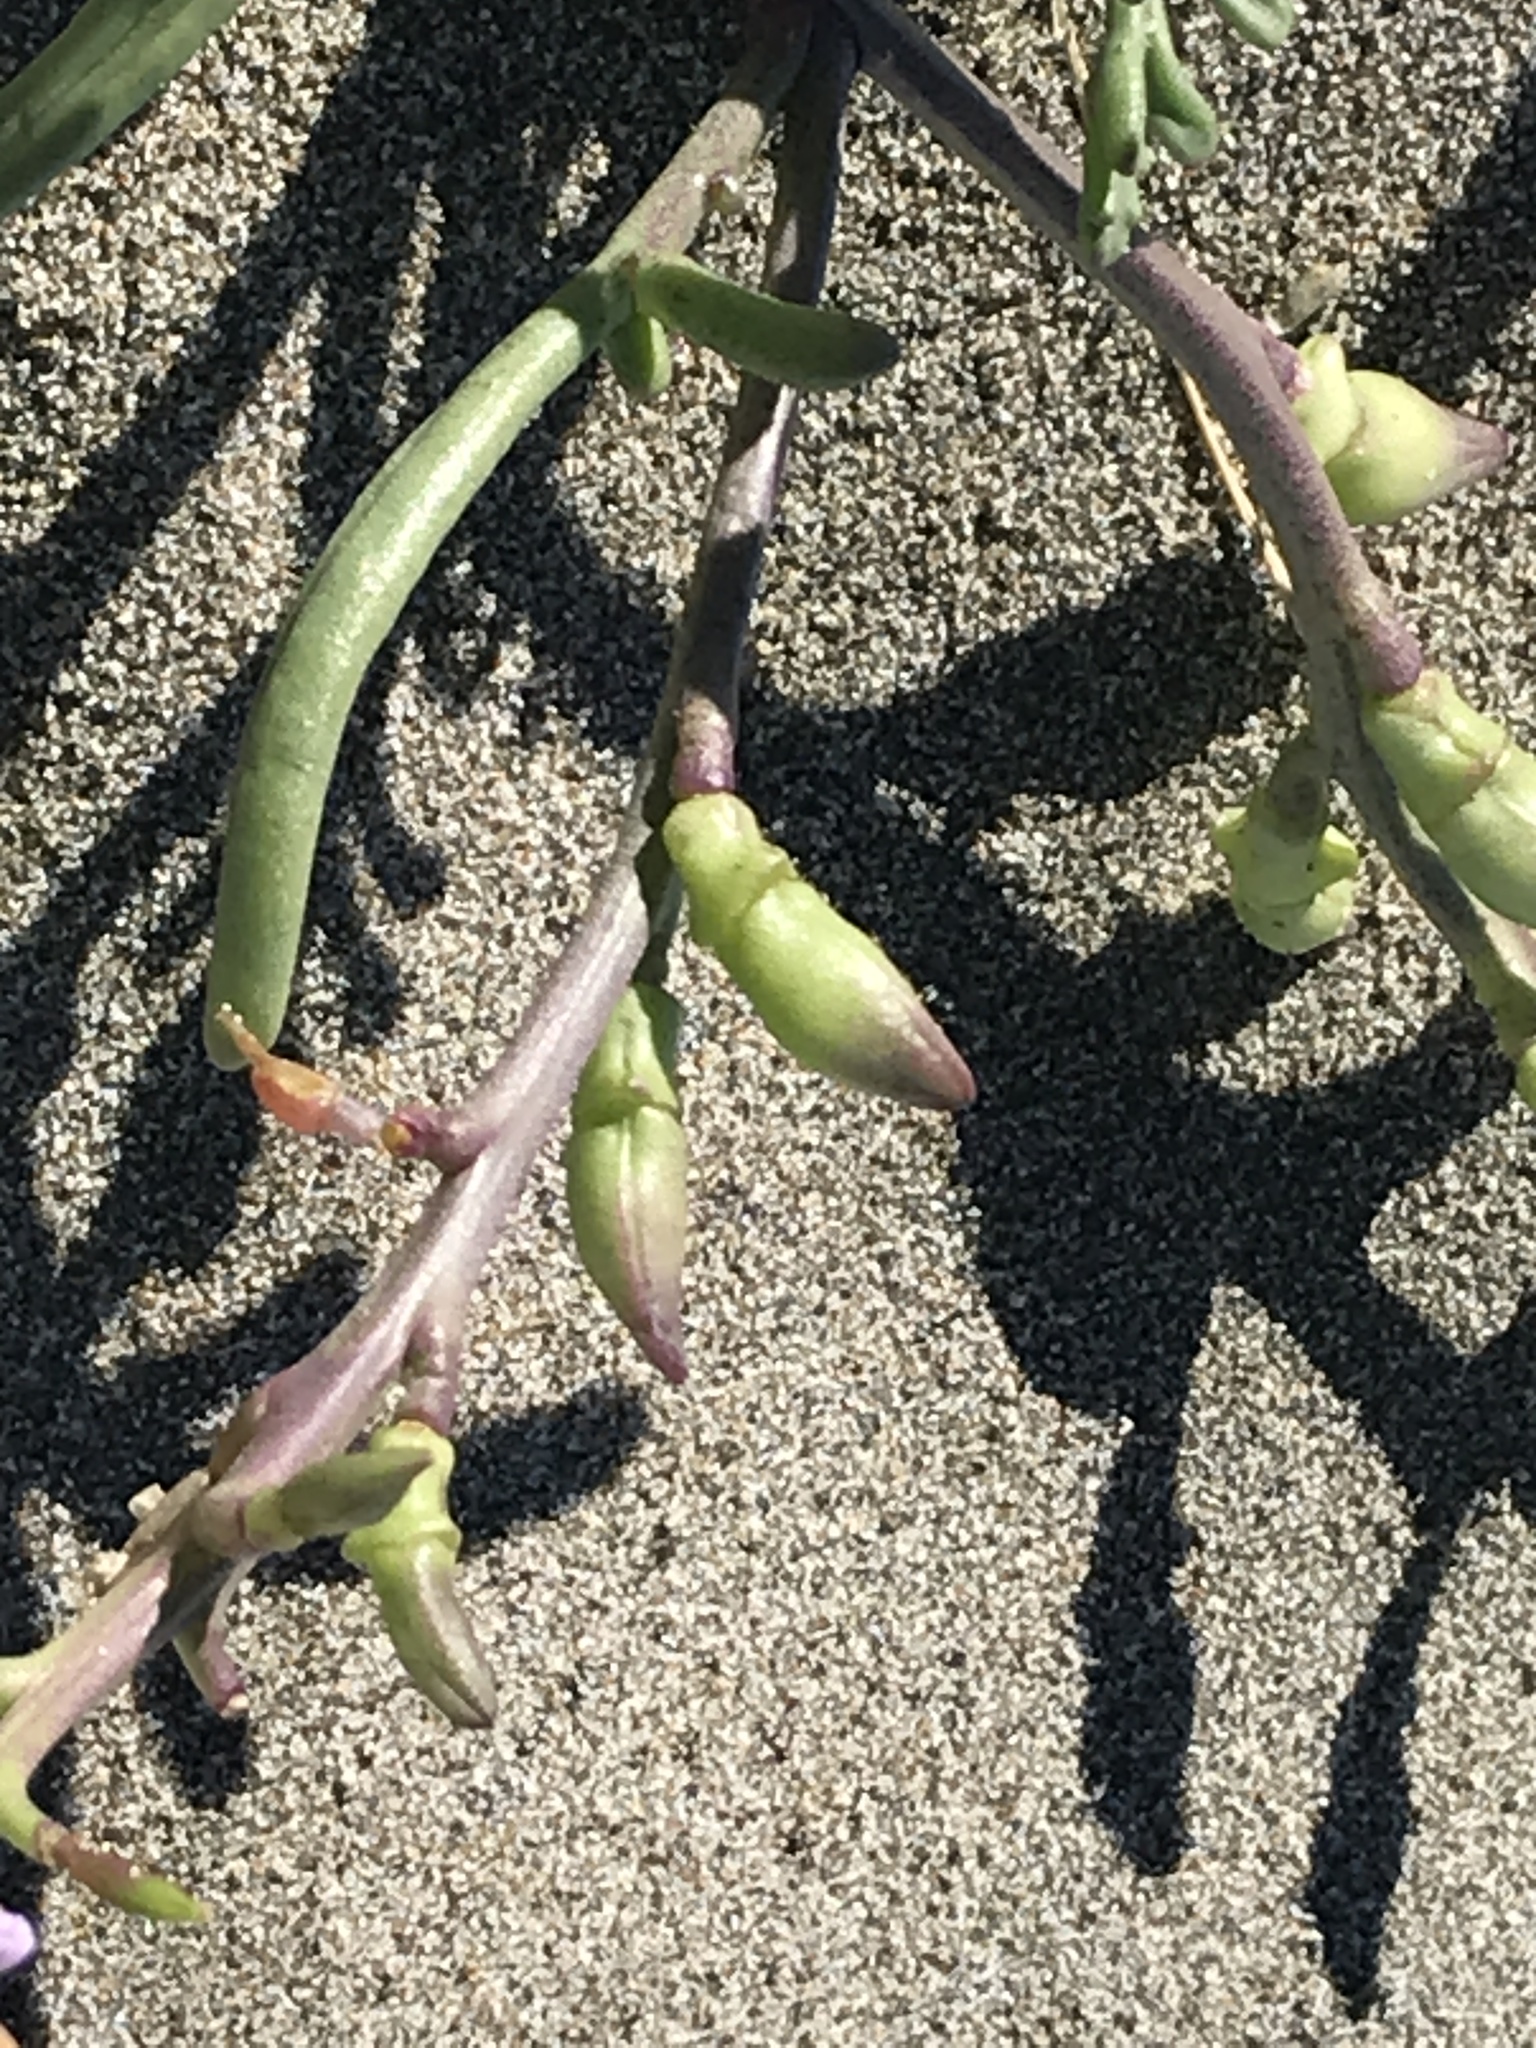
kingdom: Plantae
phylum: Tracheophyta
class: Magnoliopsida
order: Brassicales
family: Brassicaceae
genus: Cakile
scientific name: Cakile maritima
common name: Sea rocket
